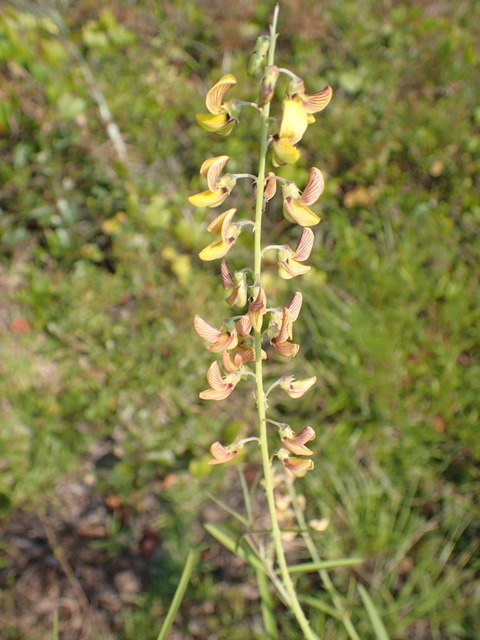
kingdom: Plantae
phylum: Tracheophyta
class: Magnoliopsida
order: Fabales
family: Fabaceae
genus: Crotalaria
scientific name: Crotalaria lanceolata
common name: Lanceleaf rattlebox
